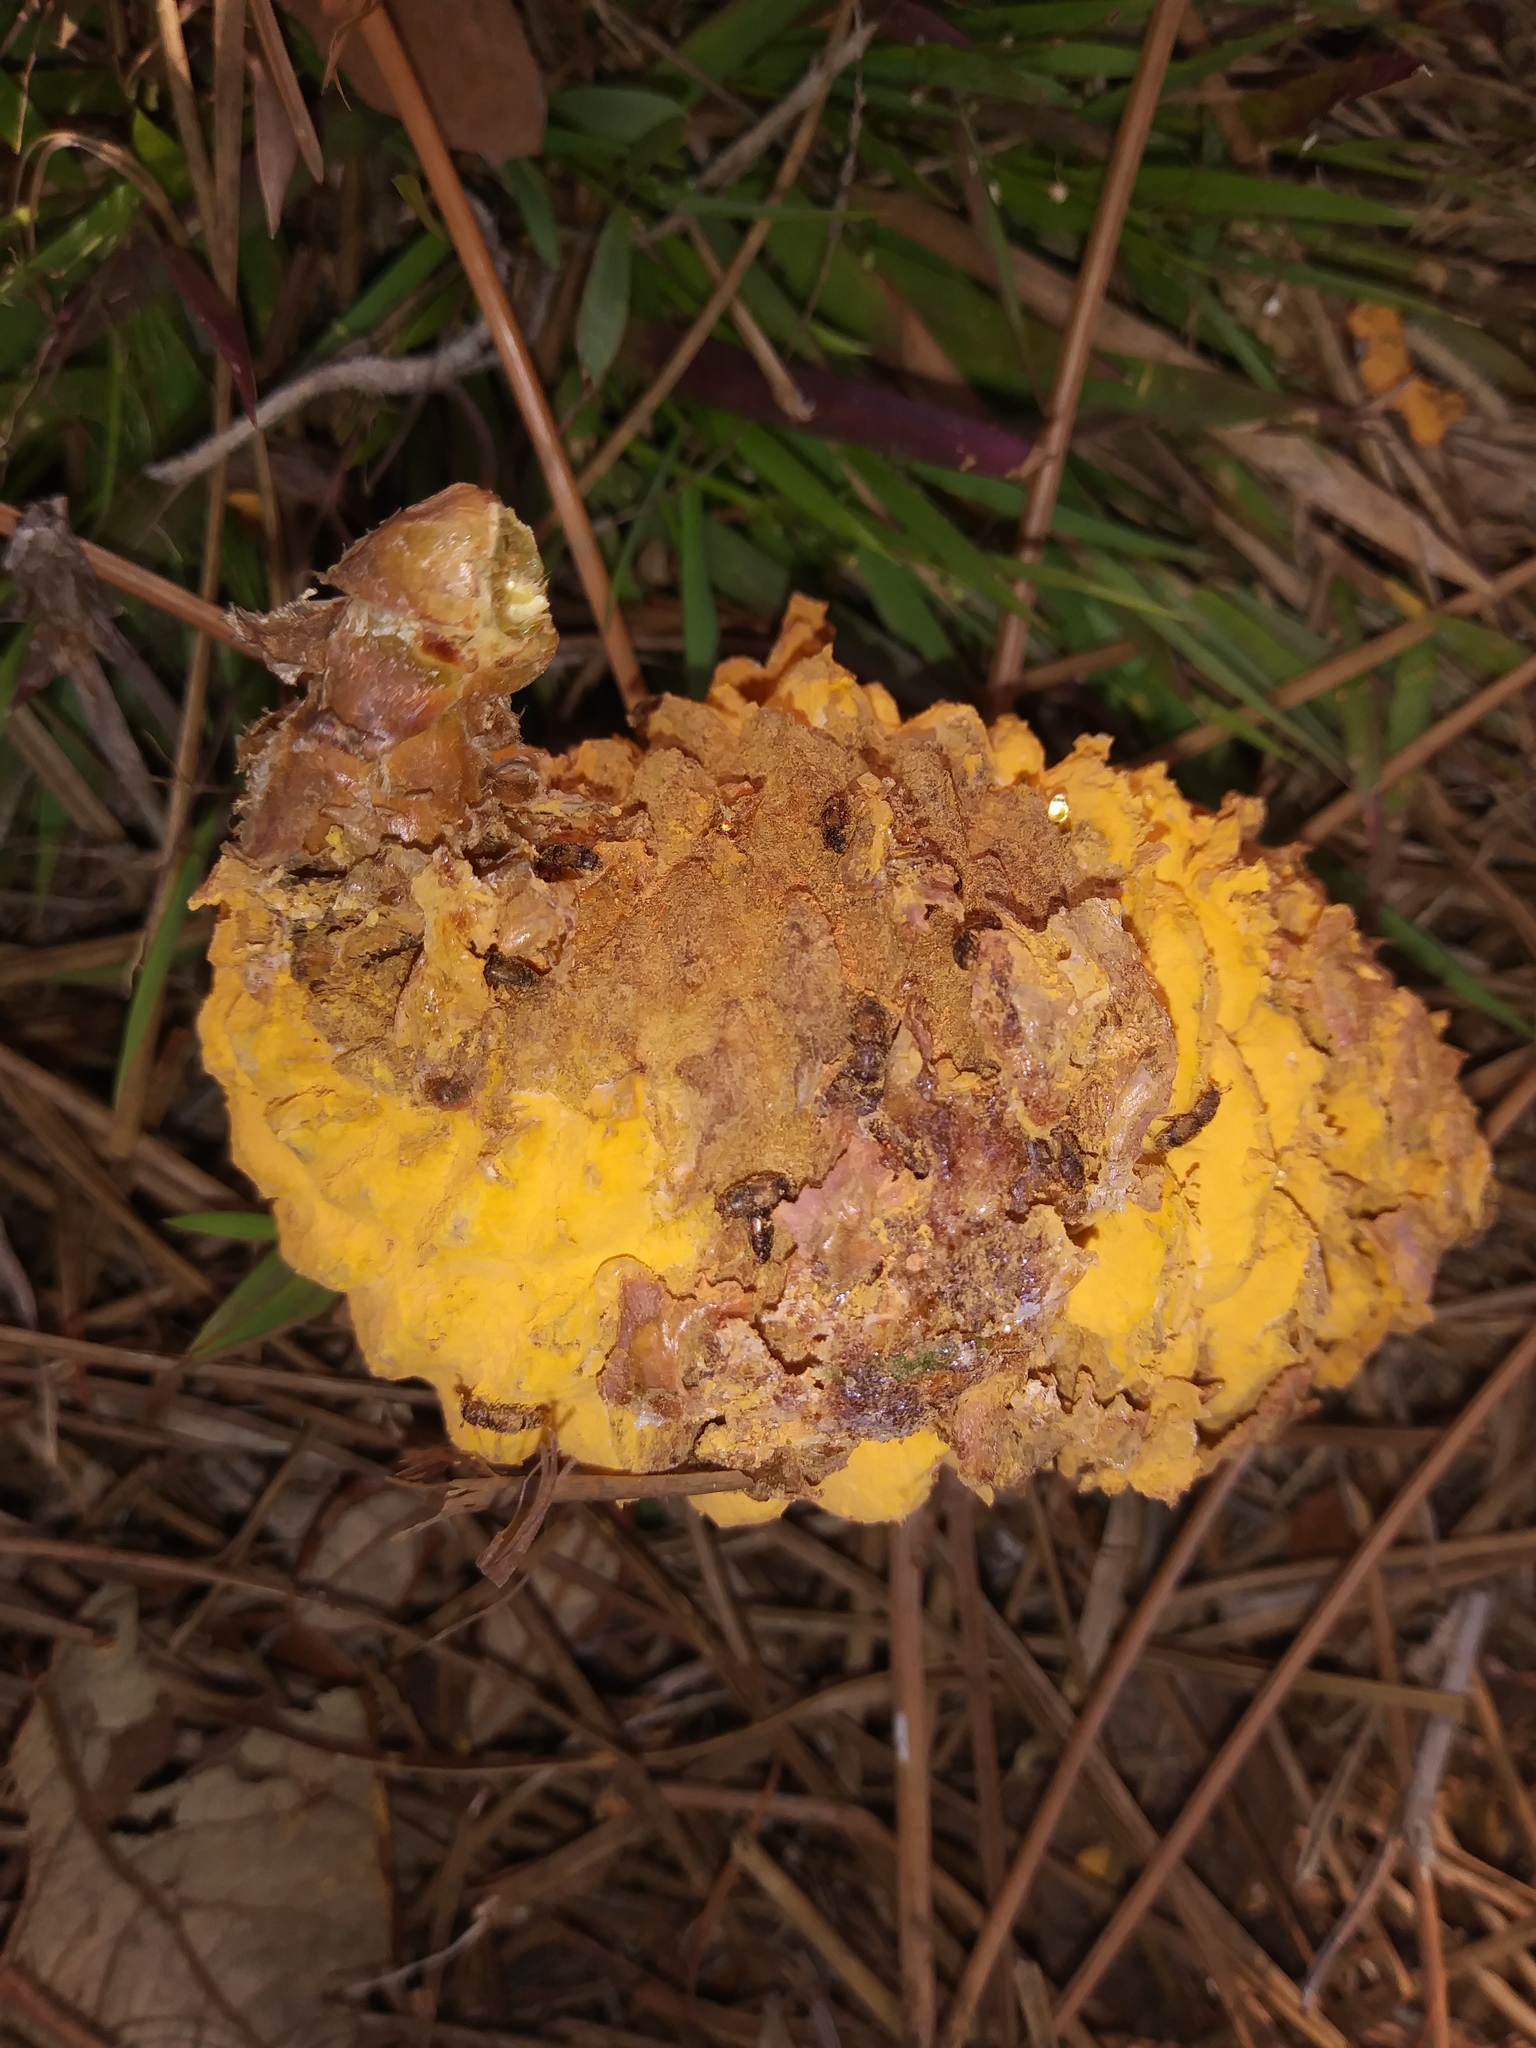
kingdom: Fungi
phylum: Basidiomycota
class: Pucciniomycetes
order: Pucciniales
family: Cronartiaceae
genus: Cronartium
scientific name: Cronartium strobilinum
